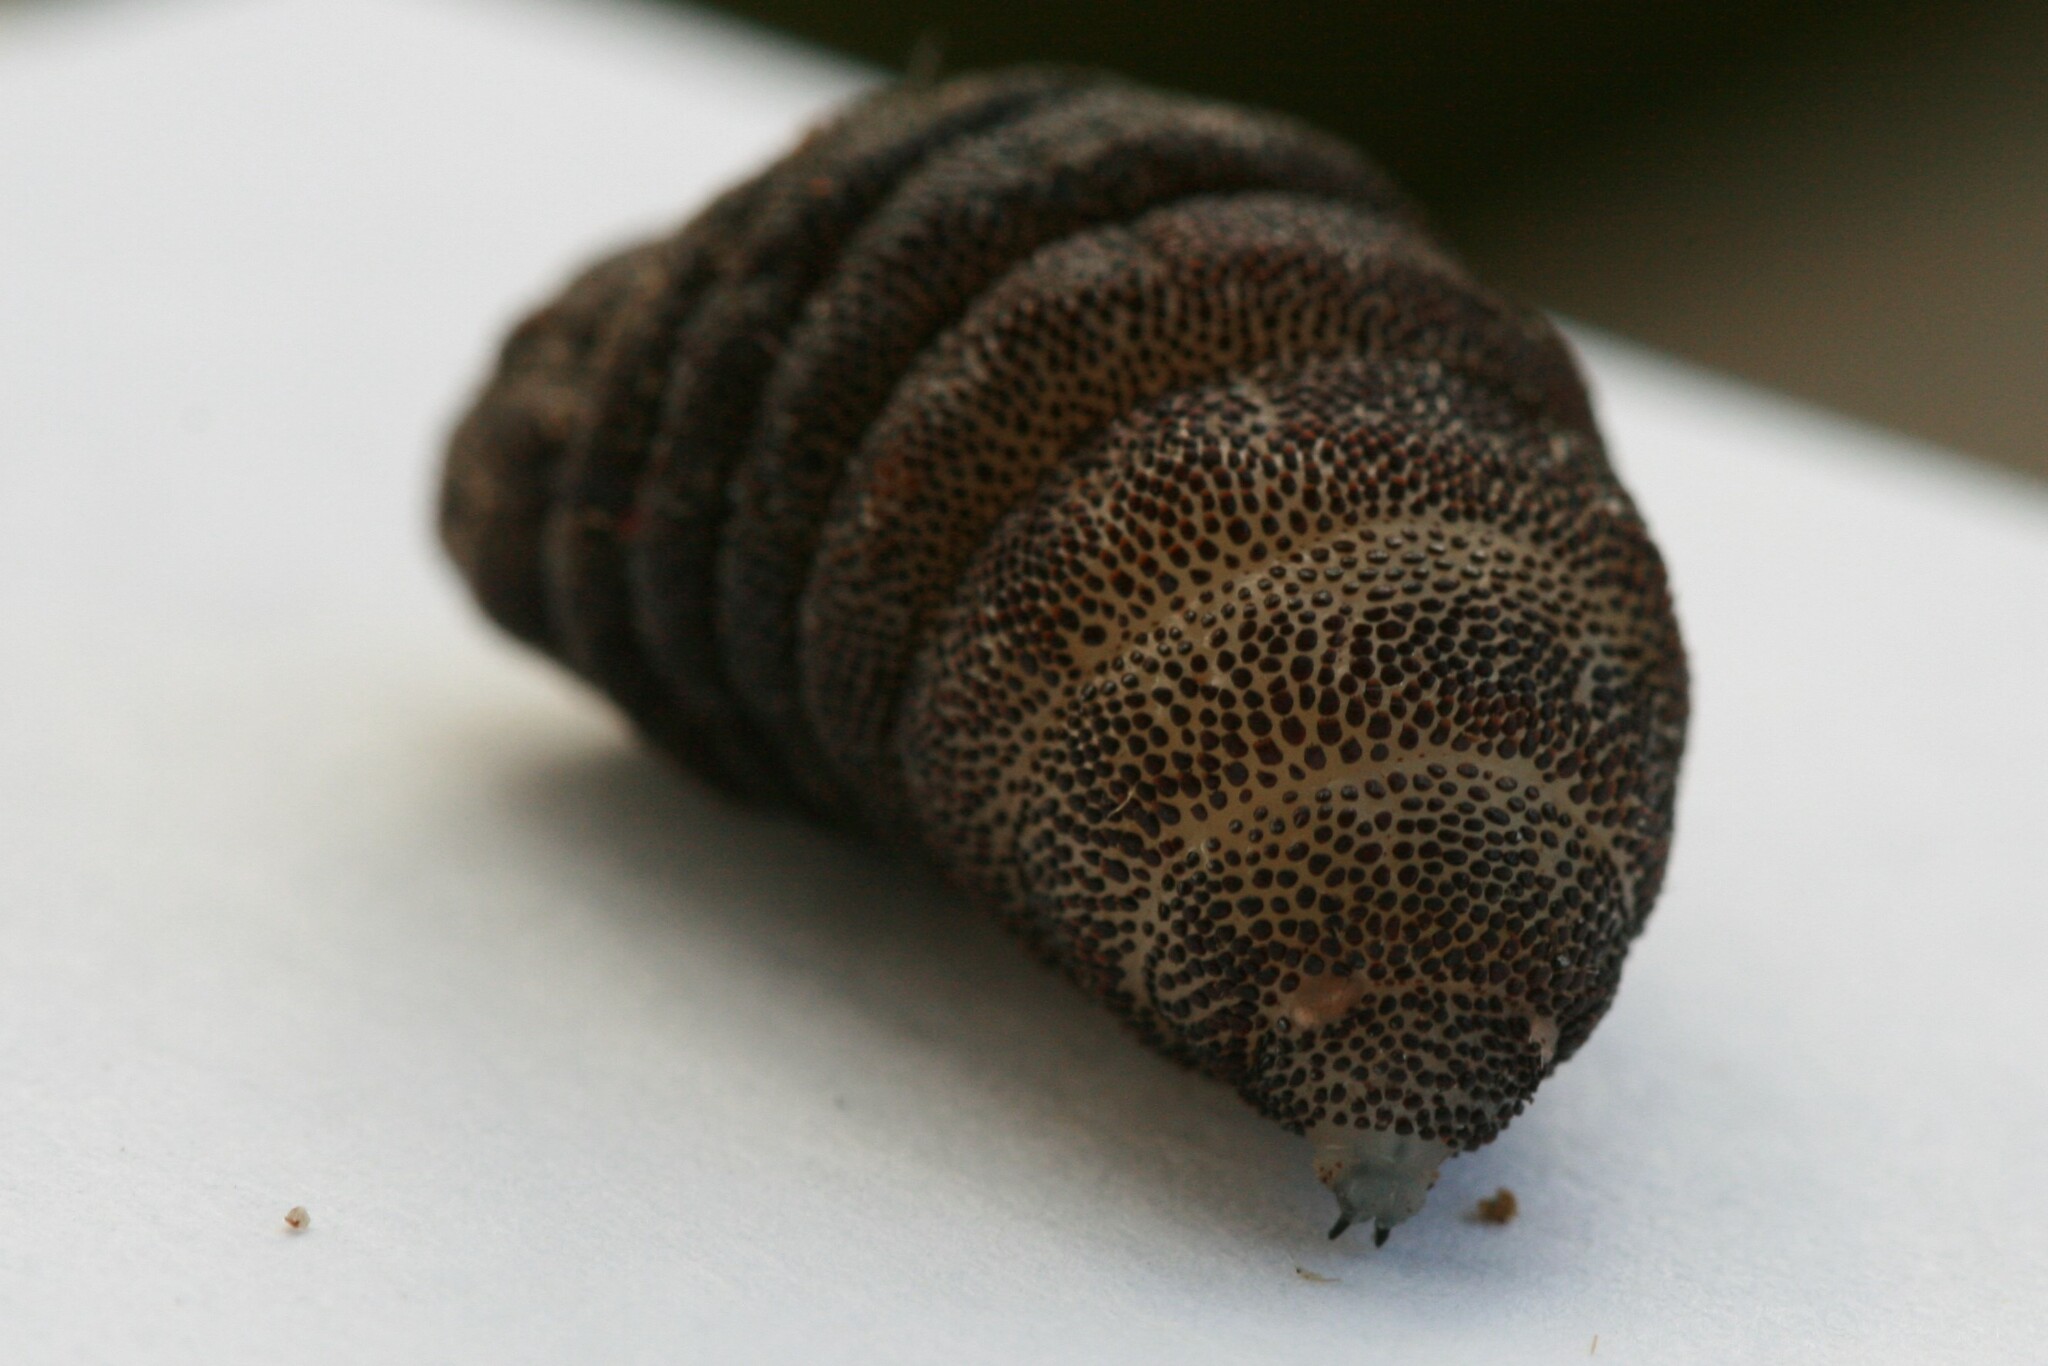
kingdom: Animalia
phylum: Arthropoda
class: Insecta
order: Diptera
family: Oestridae
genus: Cuterebra
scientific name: Cuterebra fontinella
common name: Mouse bot fly
